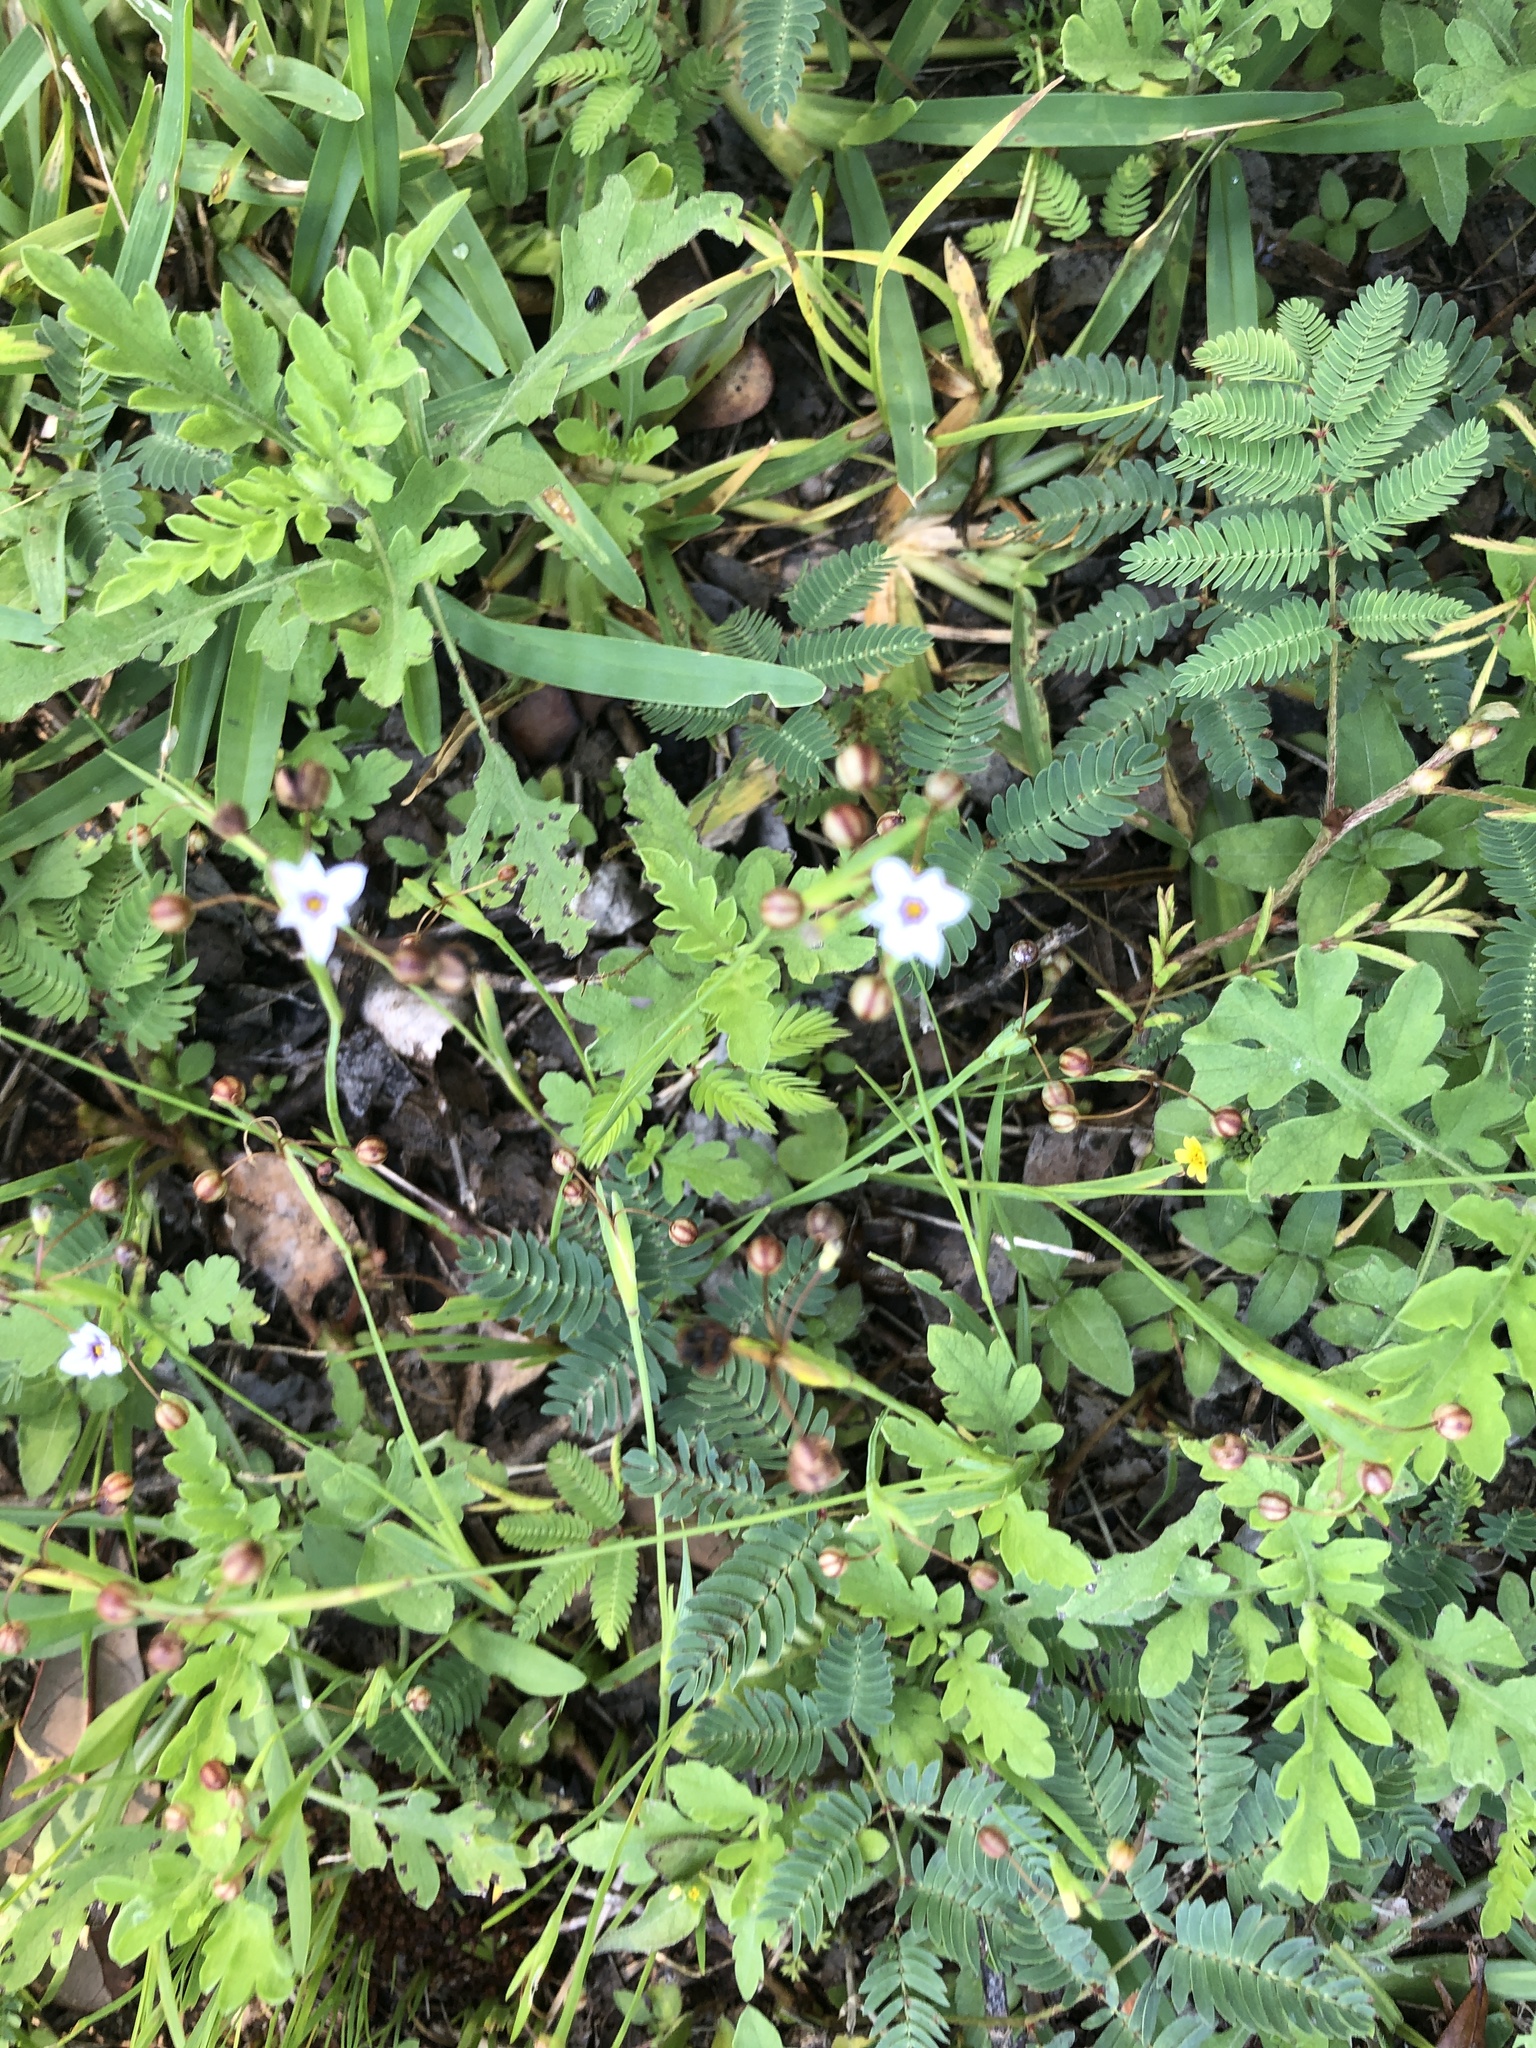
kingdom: Plantae
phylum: Tracheophyta
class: Liliopsida
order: Asparagales
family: Iridaceae
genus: Sisyrinchium
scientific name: Sisyrinchium micranthum
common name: Bermuda pigroot
